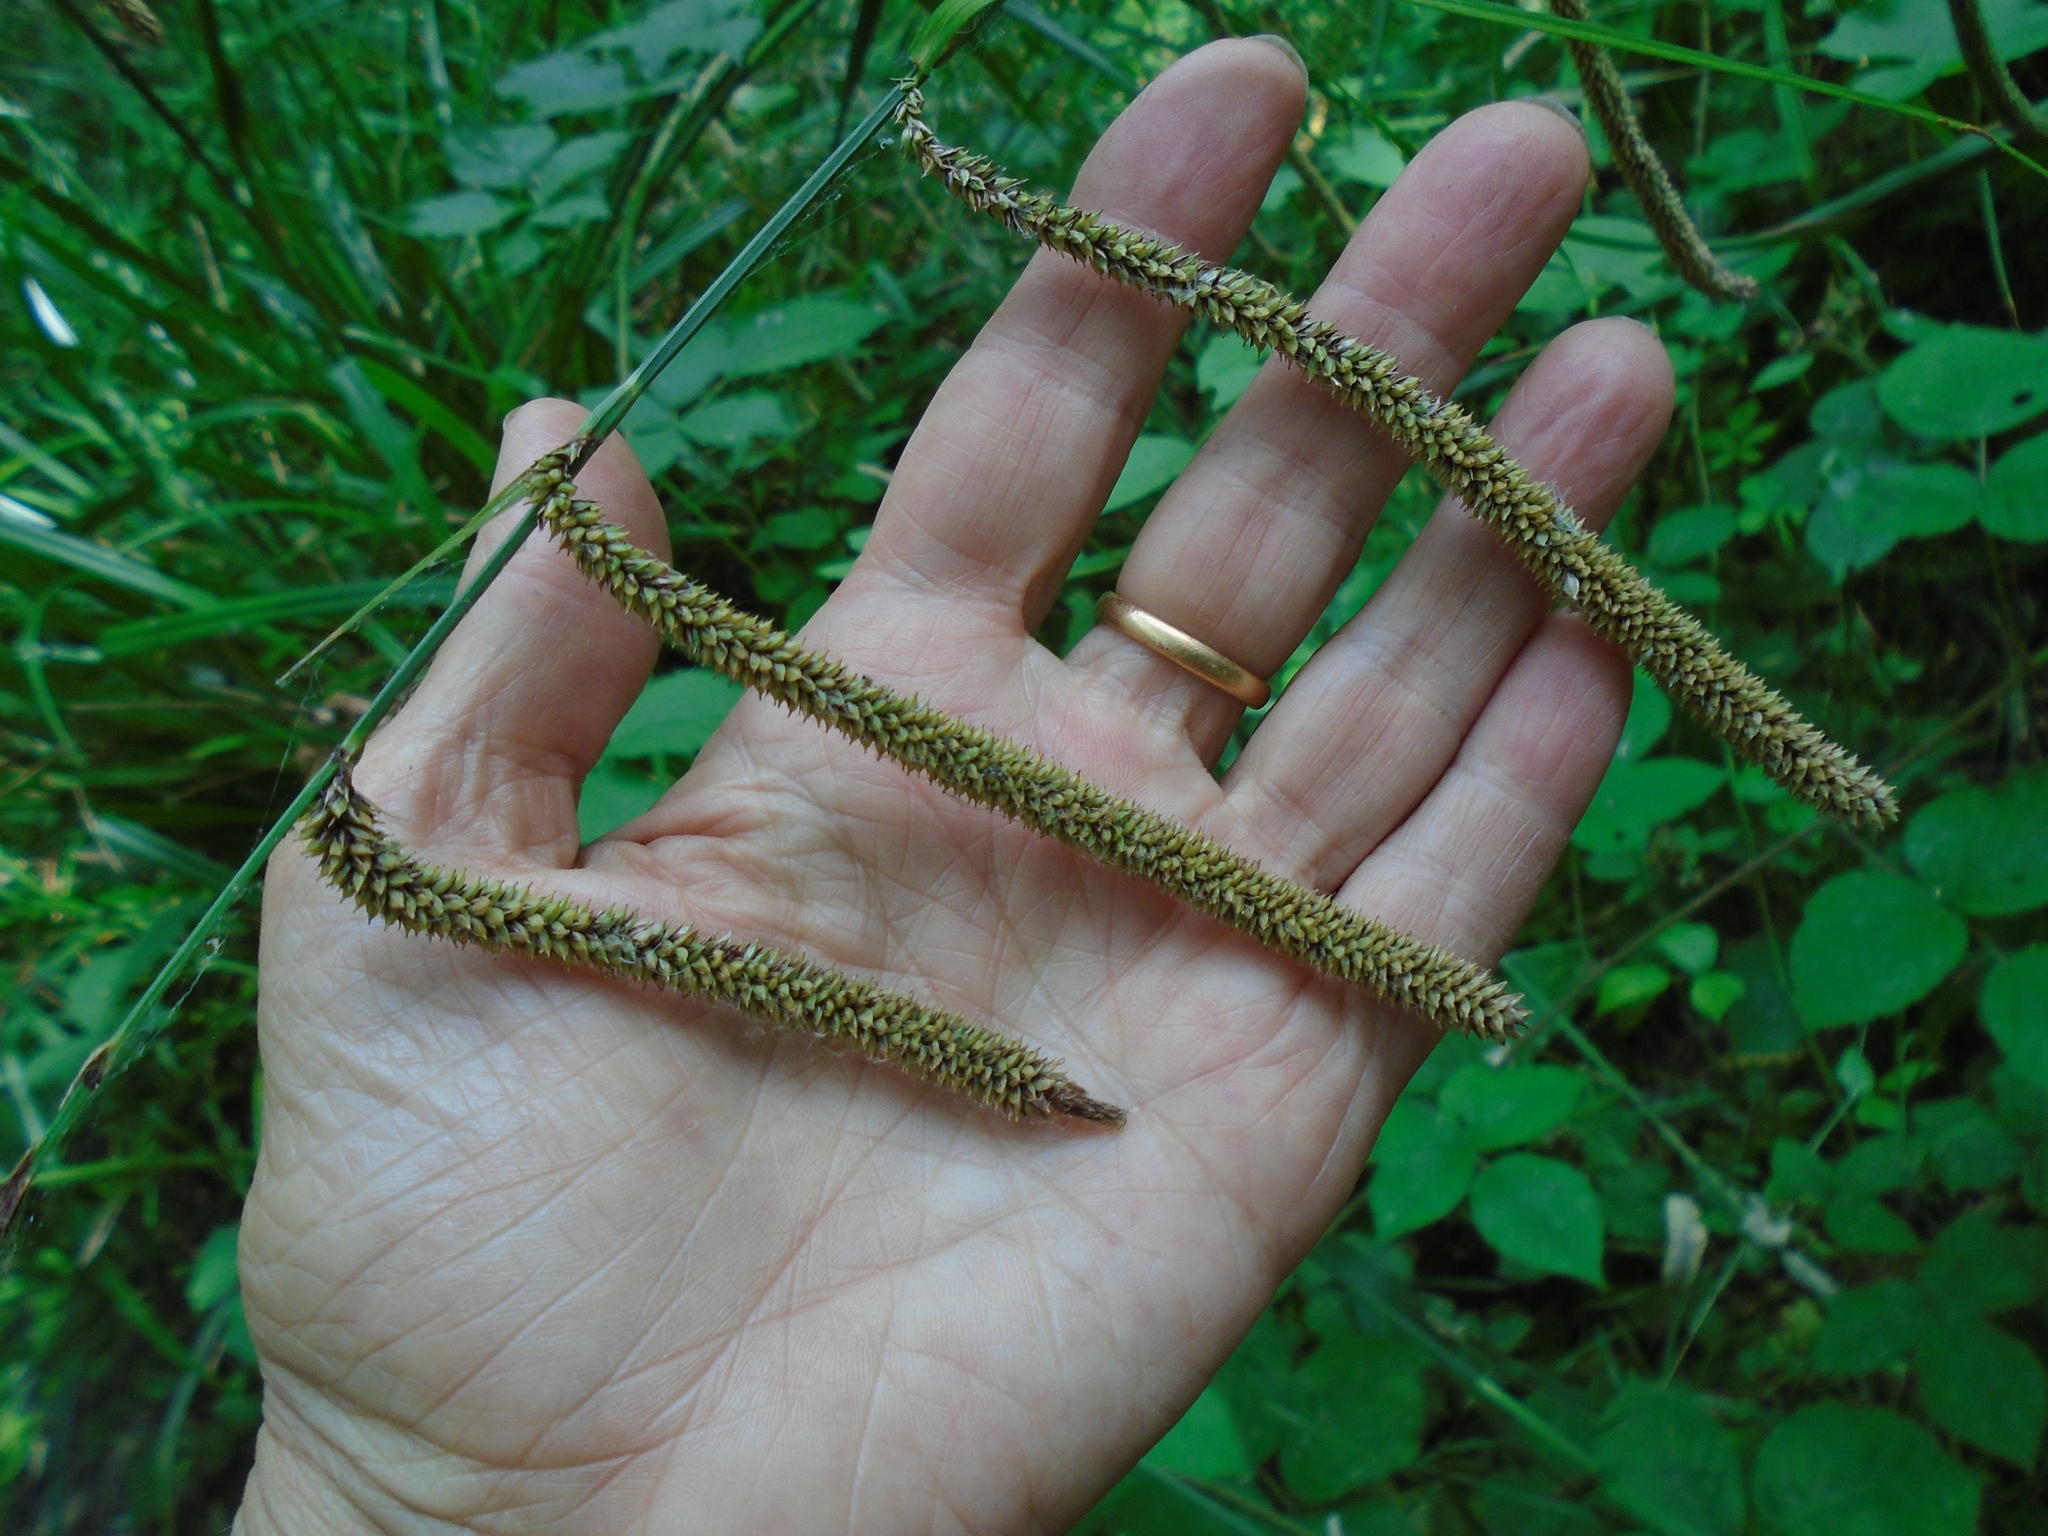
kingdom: Plantae
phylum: Tracheophyta
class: Liliopsida
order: Poales
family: Cyperaceae
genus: Carex
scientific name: Carex pendula
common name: Pendulous sedge
